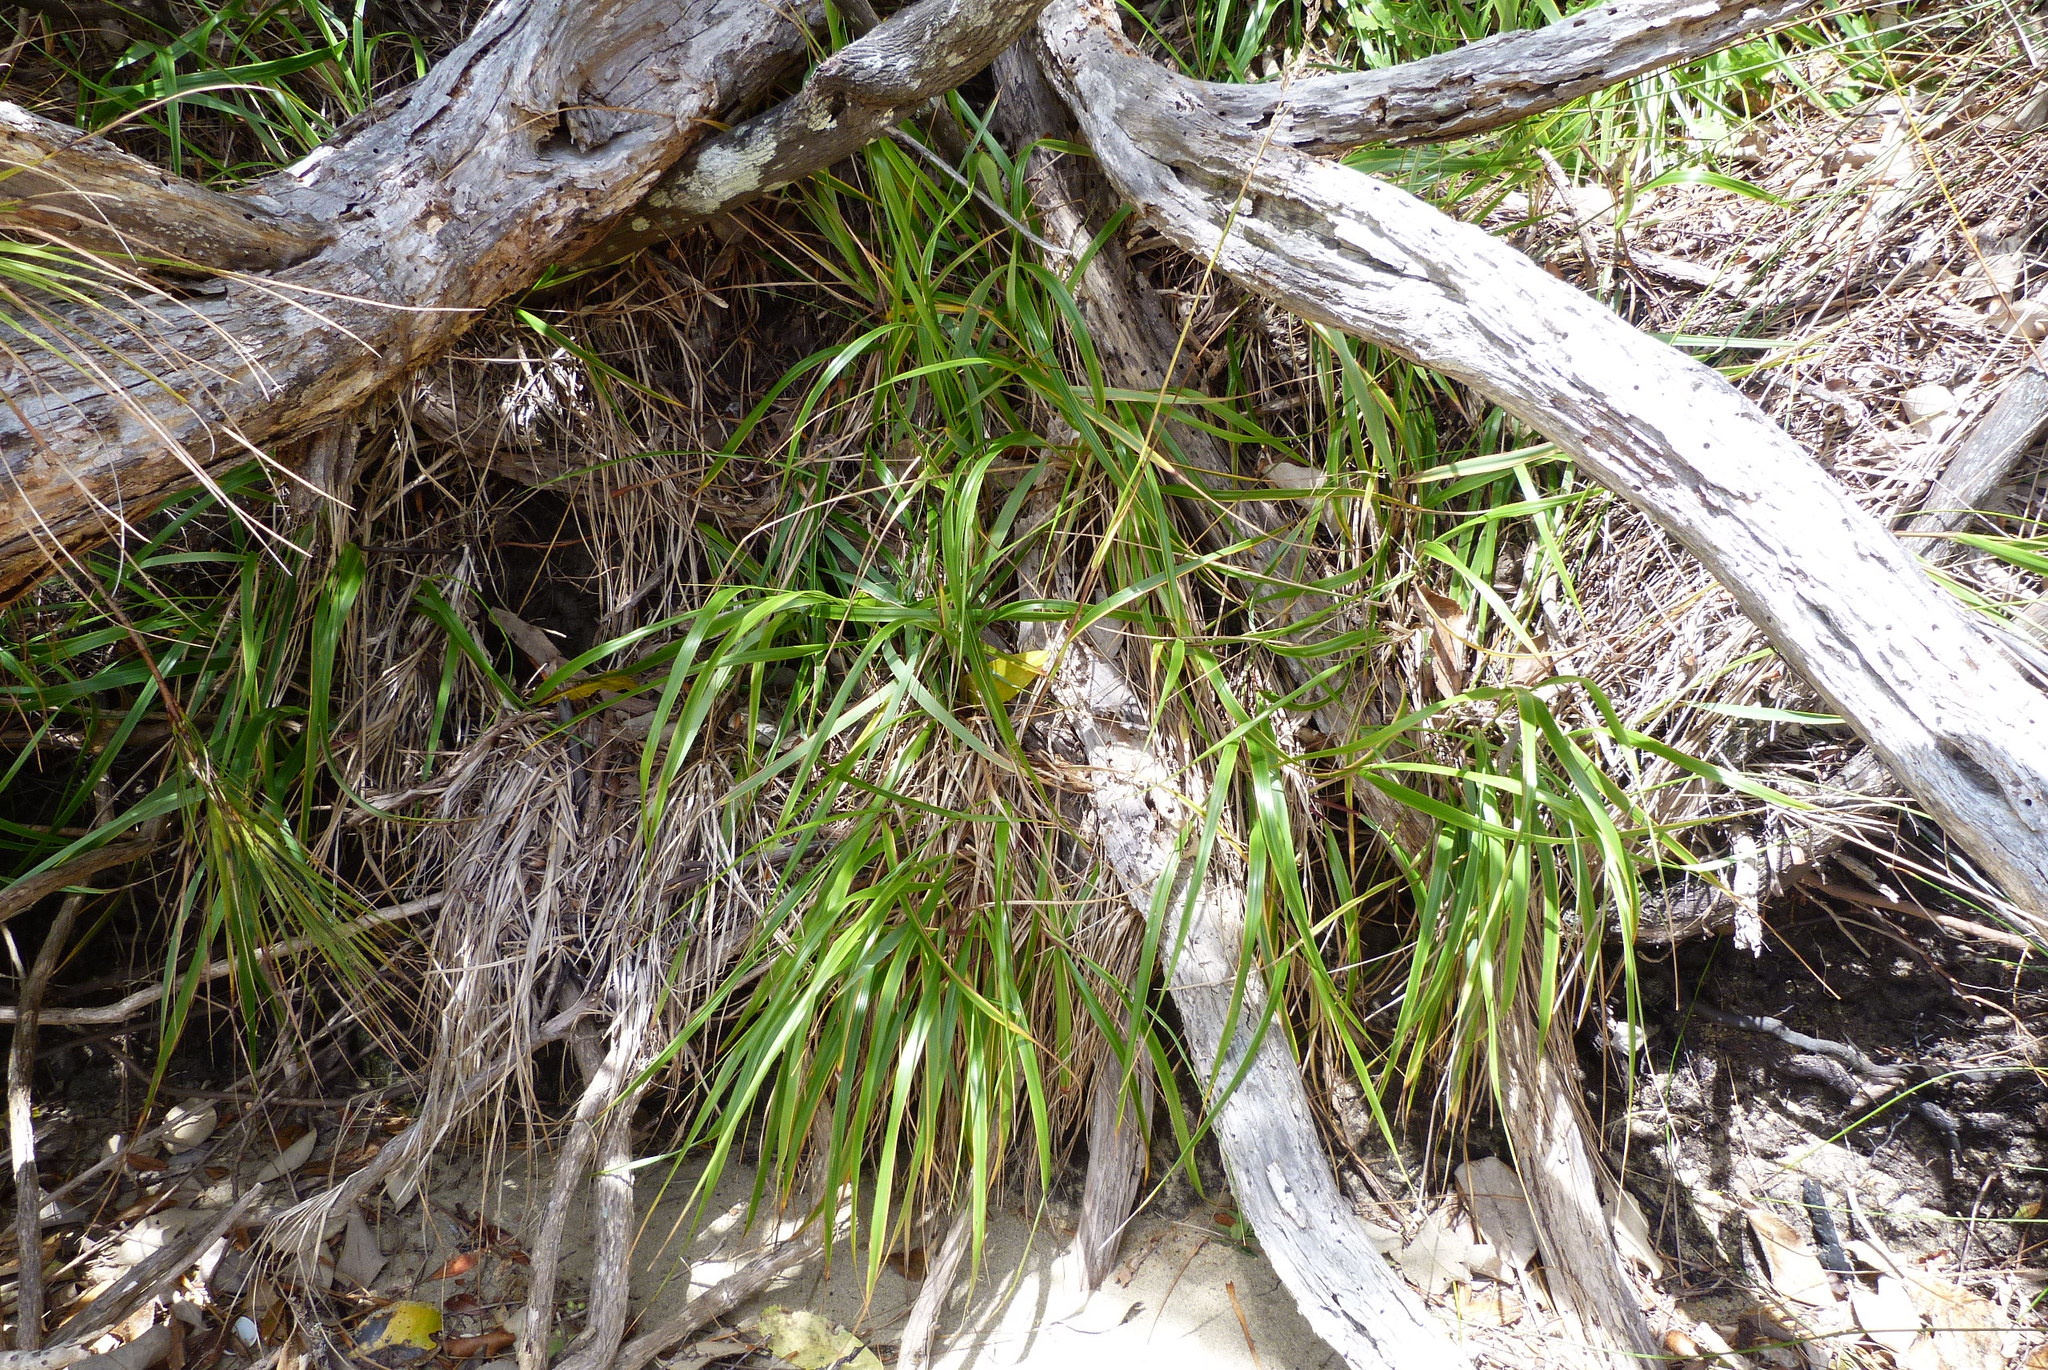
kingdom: Plantae
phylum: Tracheophyta
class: Liliopsida
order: Poales
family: Poaceae
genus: Anthoxanthum
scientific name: Anthoxanthum redolens
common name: Sweet holy grass
